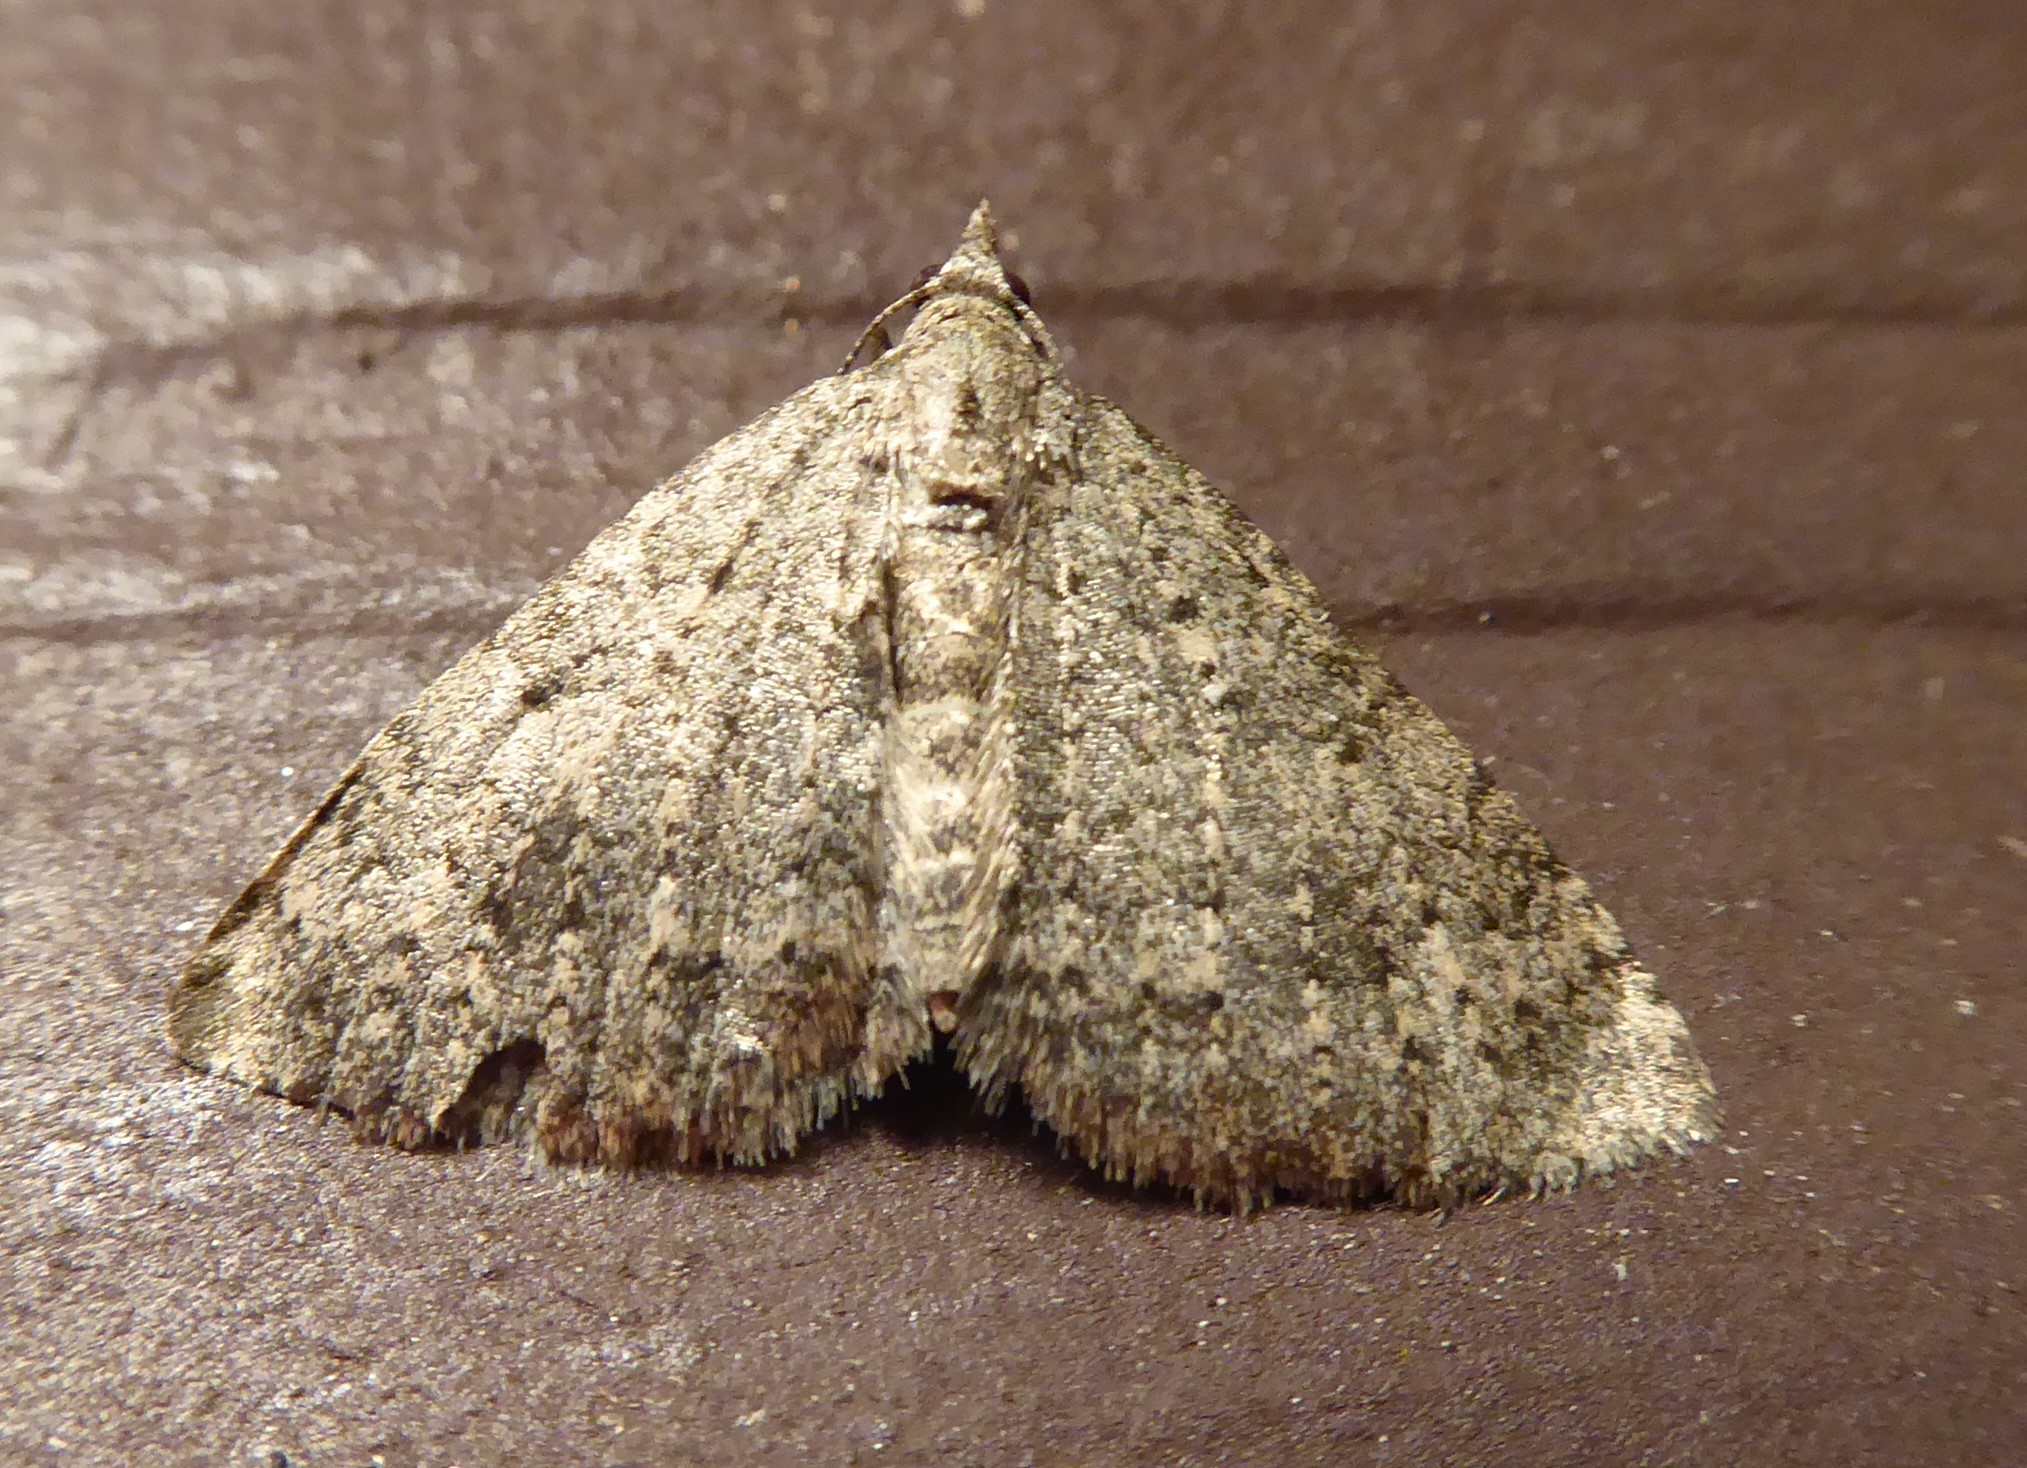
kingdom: Animalia
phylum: Arthropoda
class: Insecta
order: Lepidoptera
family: Geometridae
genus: Helastia
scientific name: Helastia corcularia
